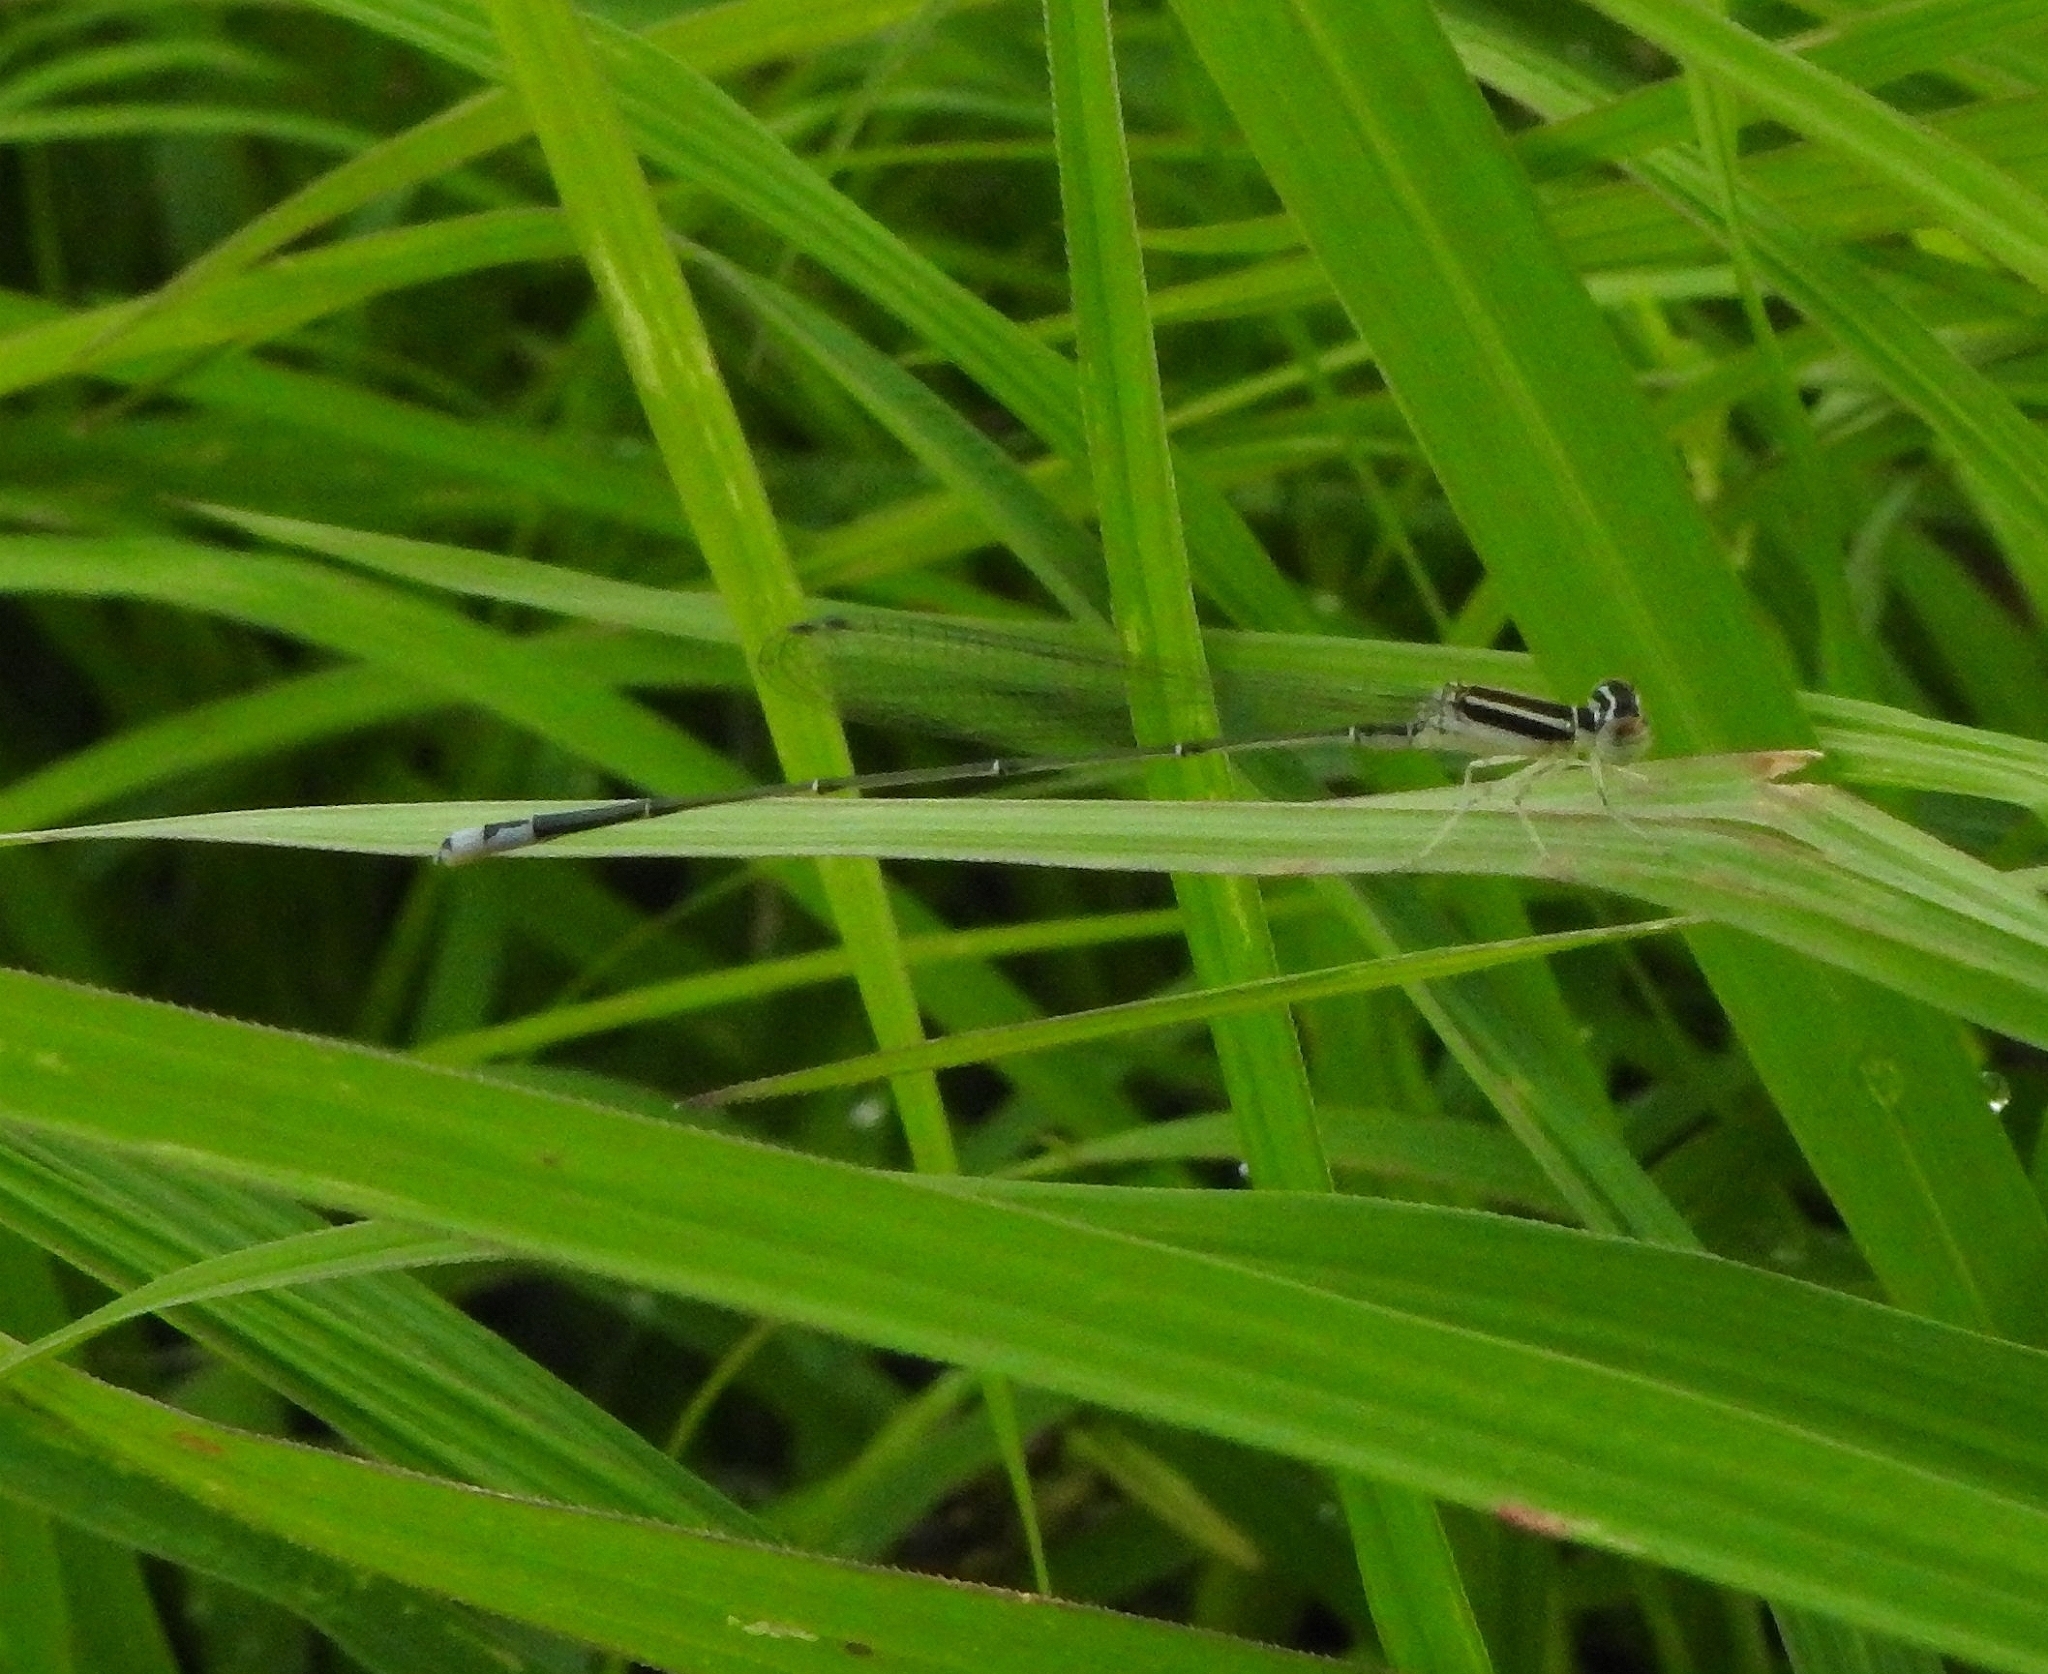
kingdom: Animalia
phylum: Arthropoda
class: Insecta
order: Odonata
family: Coenagrionidae
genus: Aciagrion
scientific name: Aciagrion occidentale
